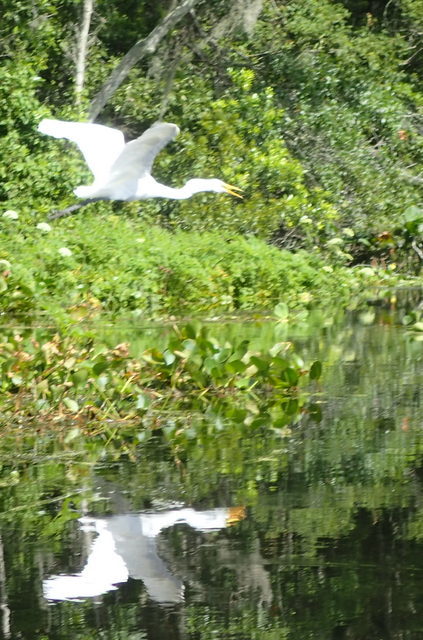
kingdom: Animalia
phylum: Chordata
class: Aves
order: Pelecaniformes
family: Ardeidae
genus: Ardea
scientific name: Ardea alba
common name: Great egret
